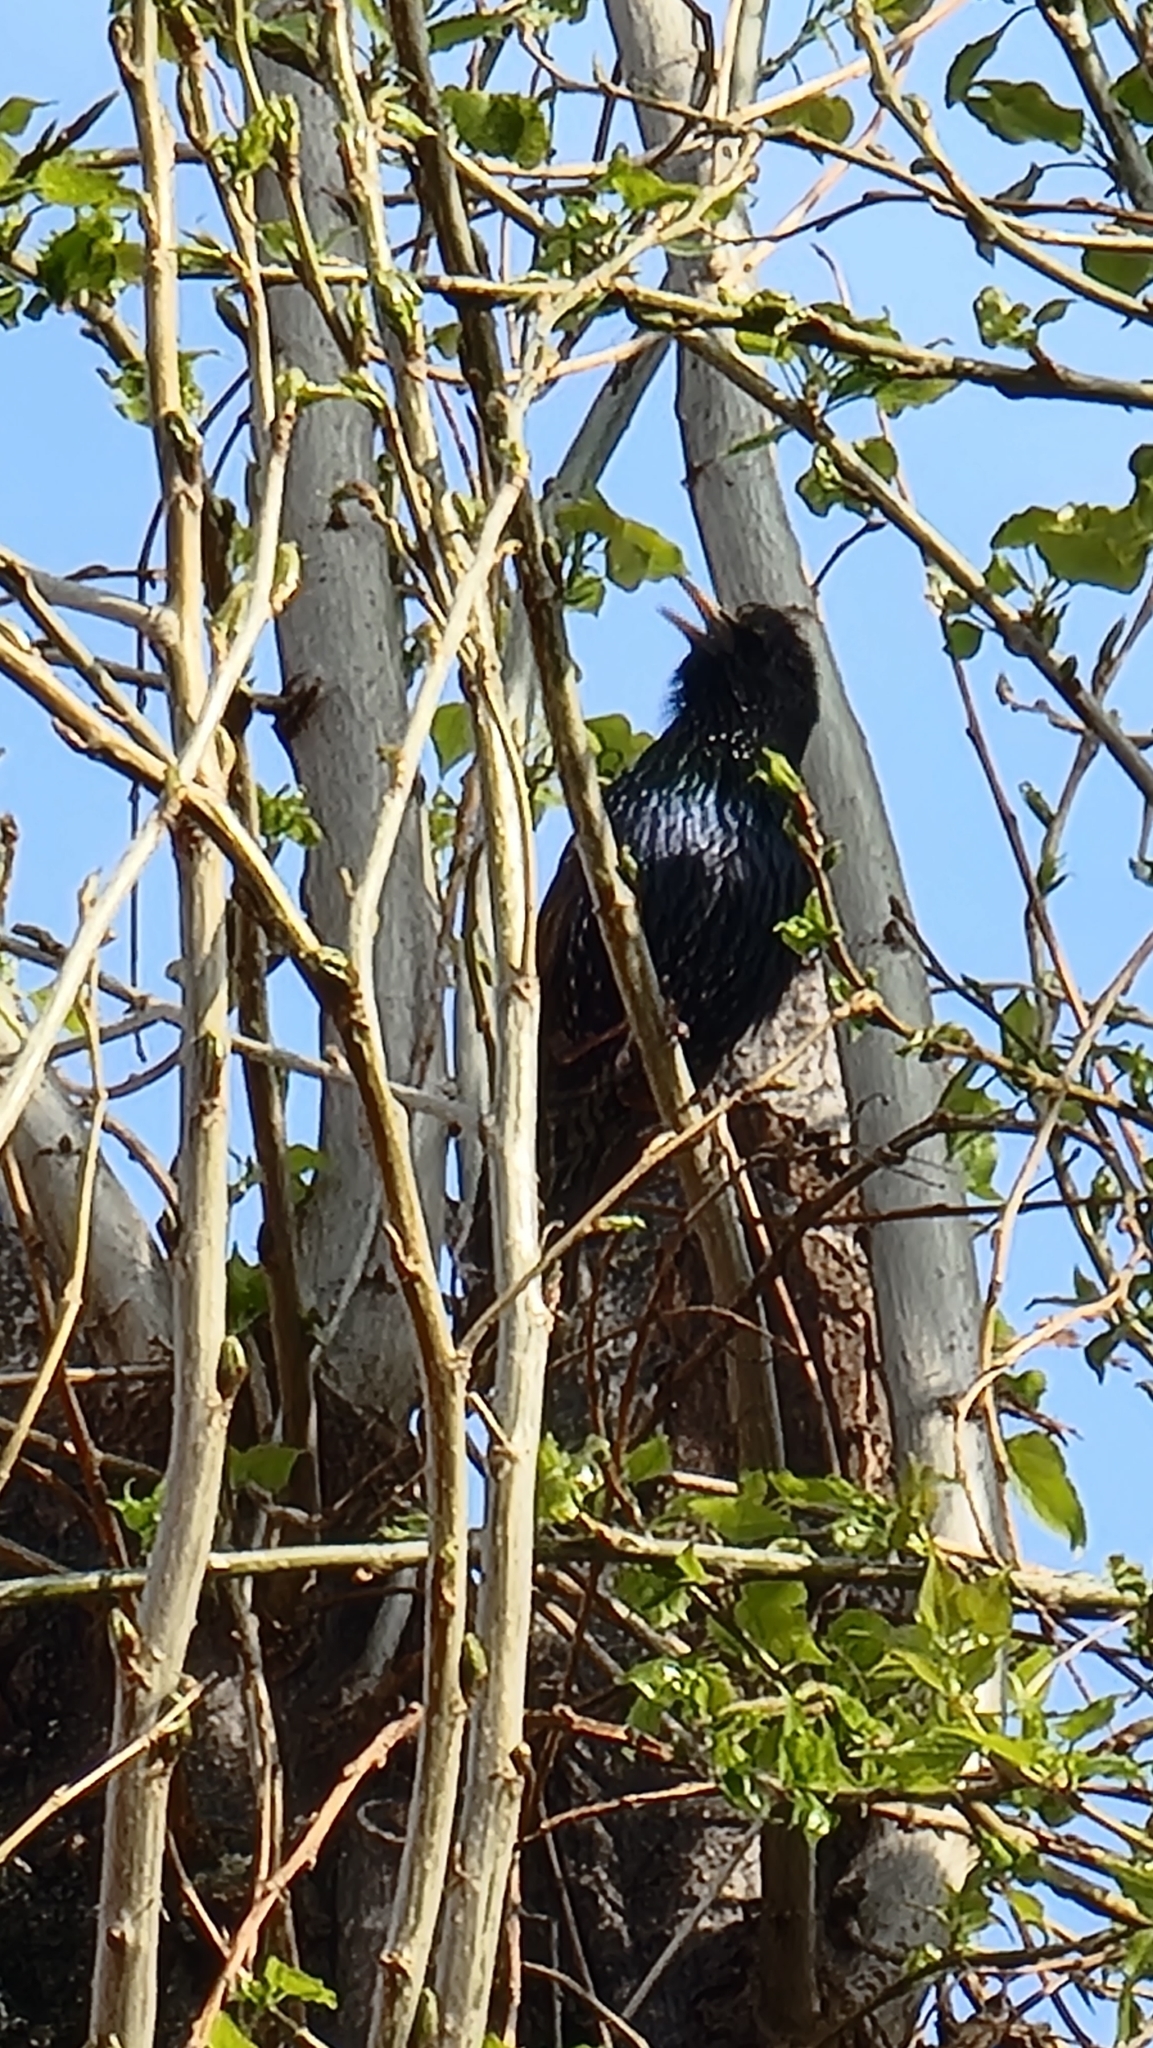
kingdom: Animalia
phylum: Chordata
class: Aves
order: Passeriformes
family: Sturnidae
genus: Sturnus
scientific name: Sturnus vulgaris
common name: Common starling
